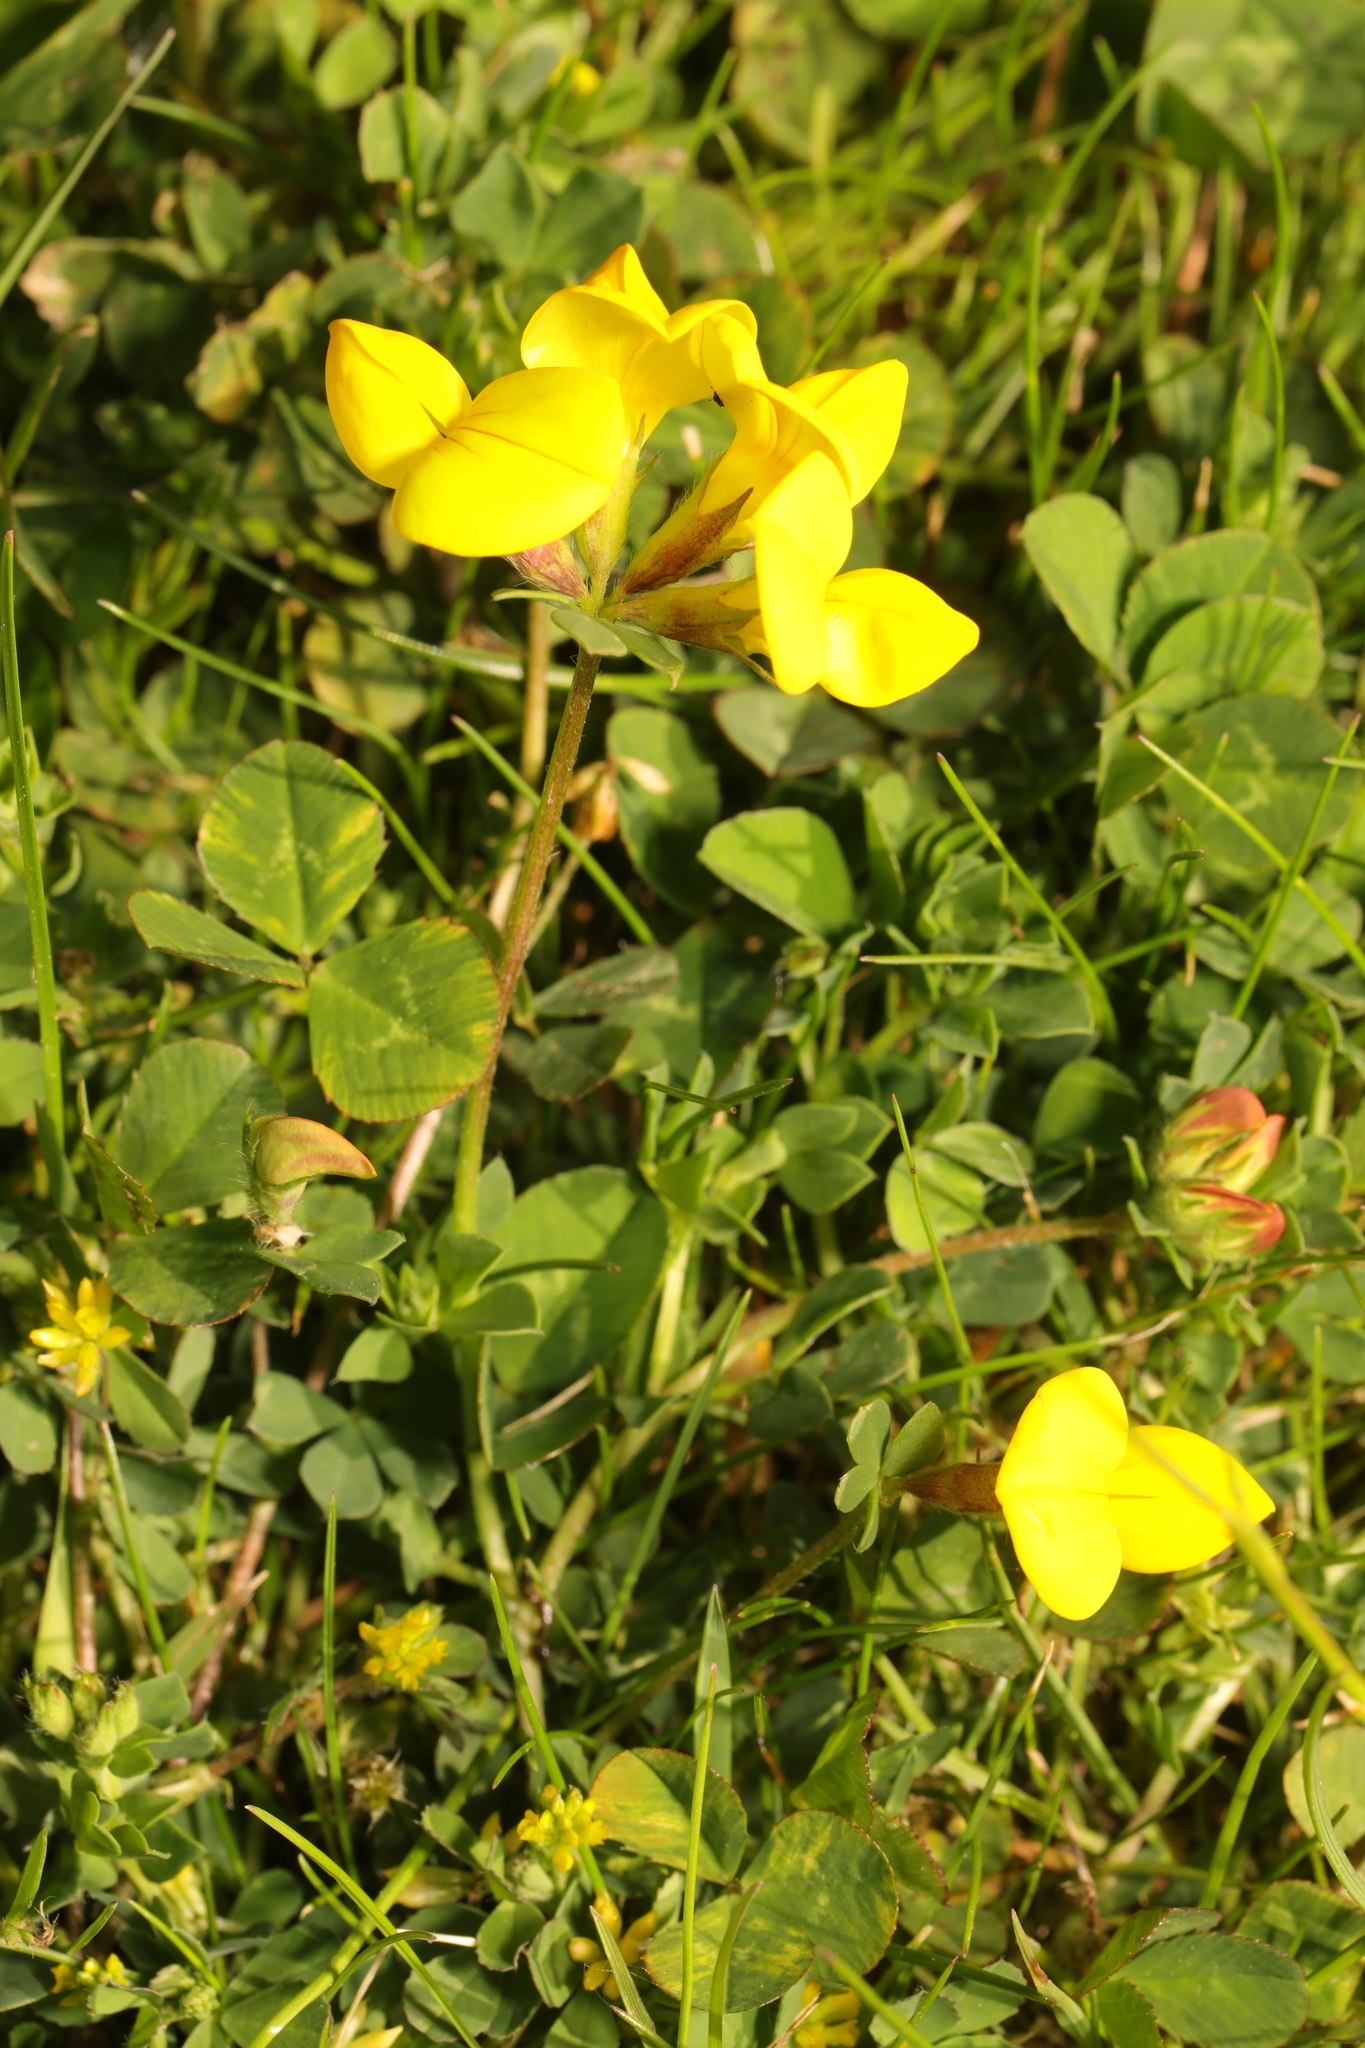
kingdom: Plantae
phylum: Tracheophyta
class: Magnoliopsida
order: Fabales
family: Fabaceae
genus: Lotus
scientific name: Lotus corniculatus
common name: Common bird's-foot-trefoil
